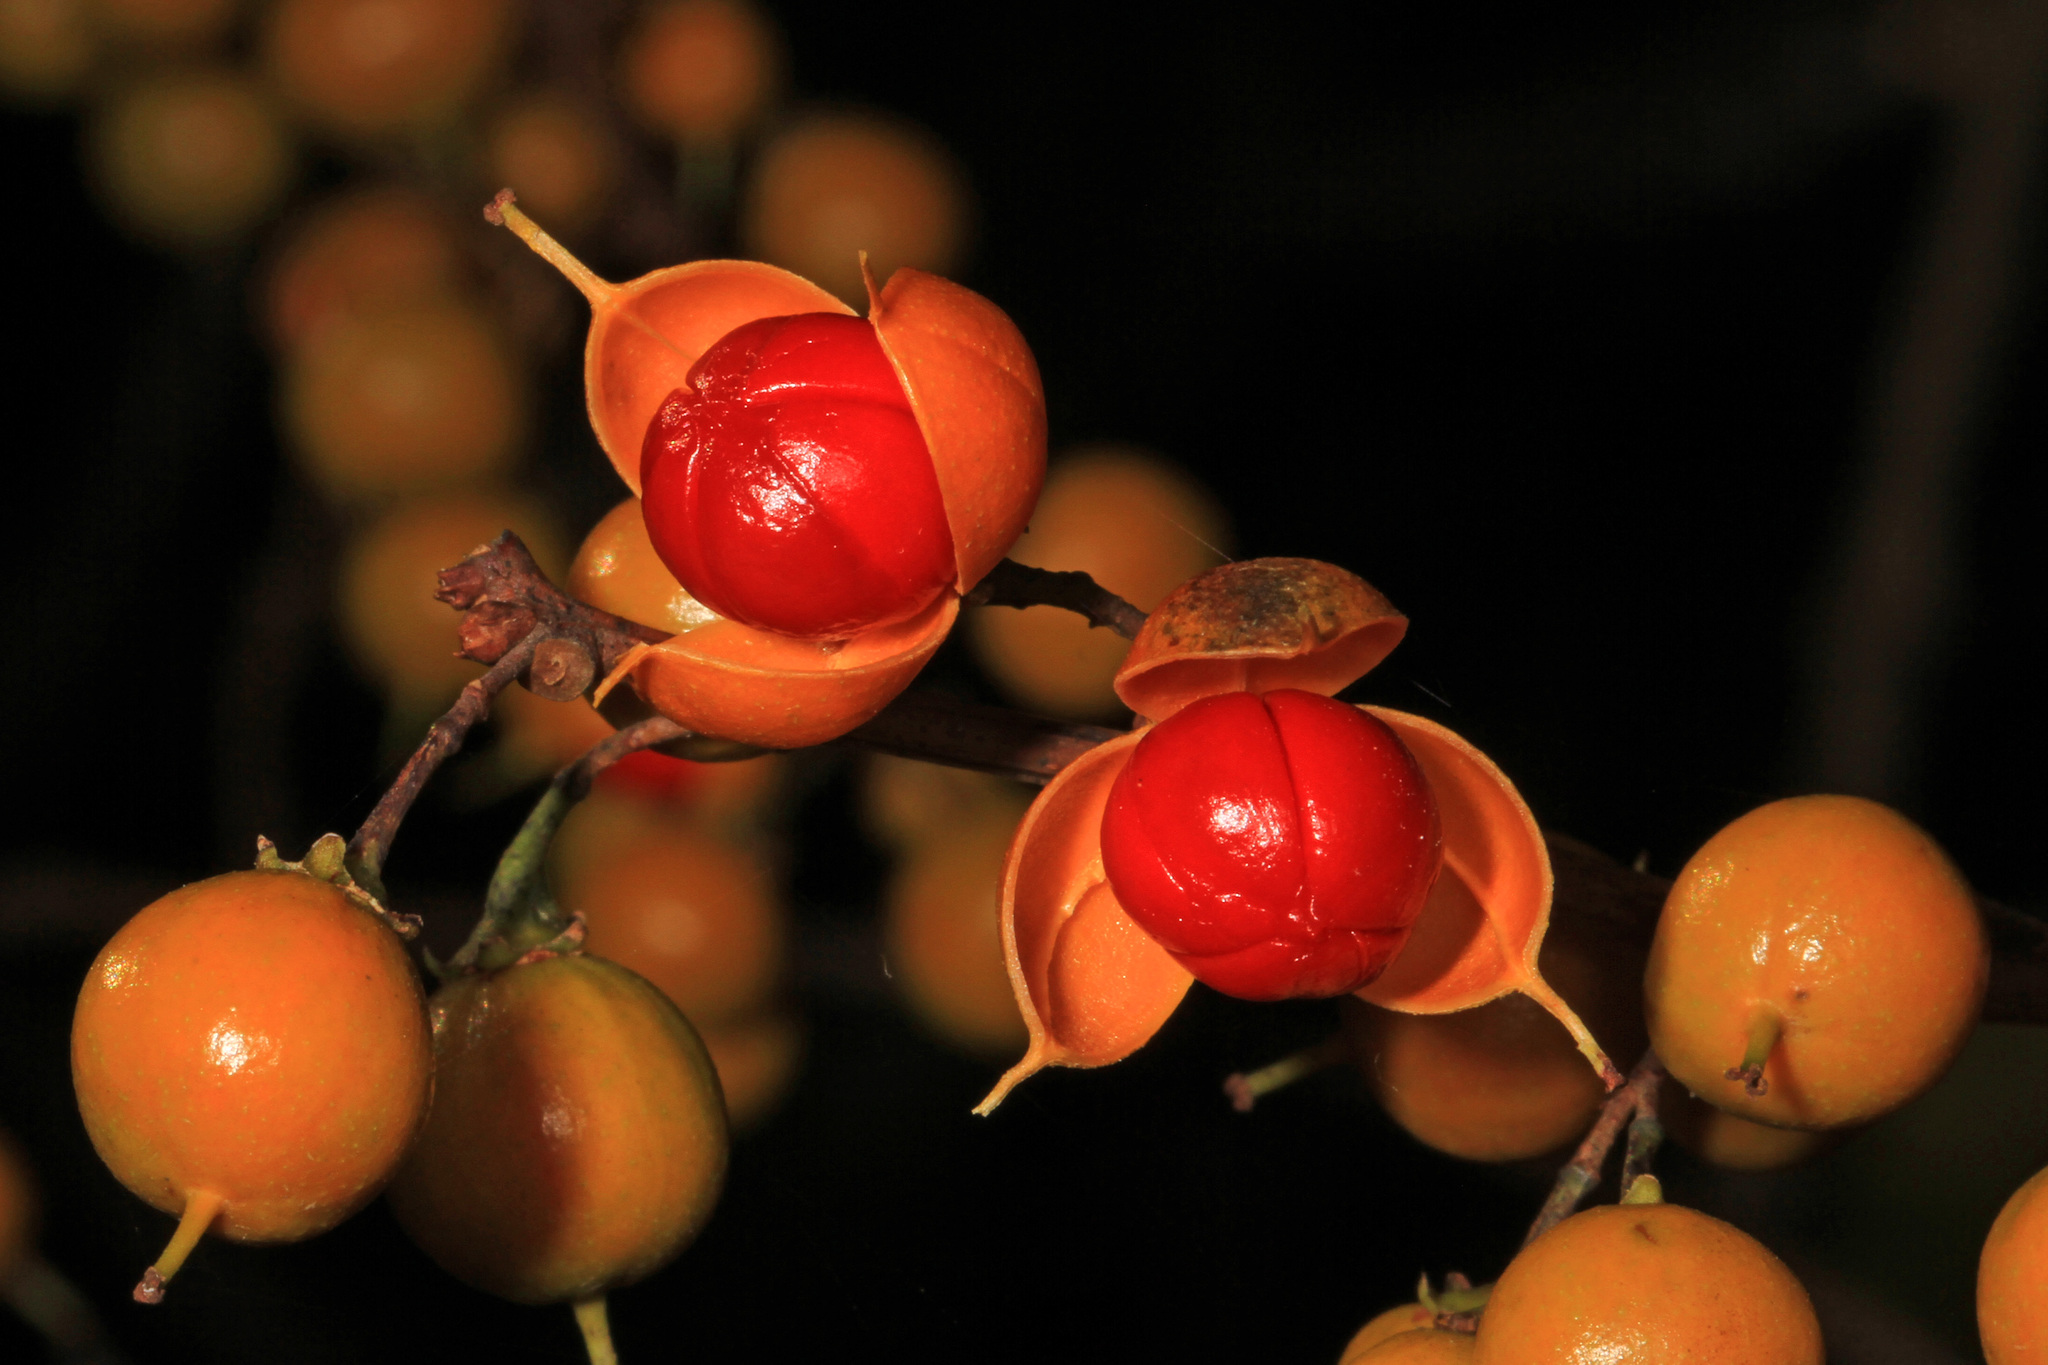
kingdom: Plantae
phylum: Tracheophyta
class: Magnoliopsida
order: Celastrales
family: Celastraceae
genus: Celastrus
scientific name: Celastrus orbiculatus
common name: Oriental bittersweet
